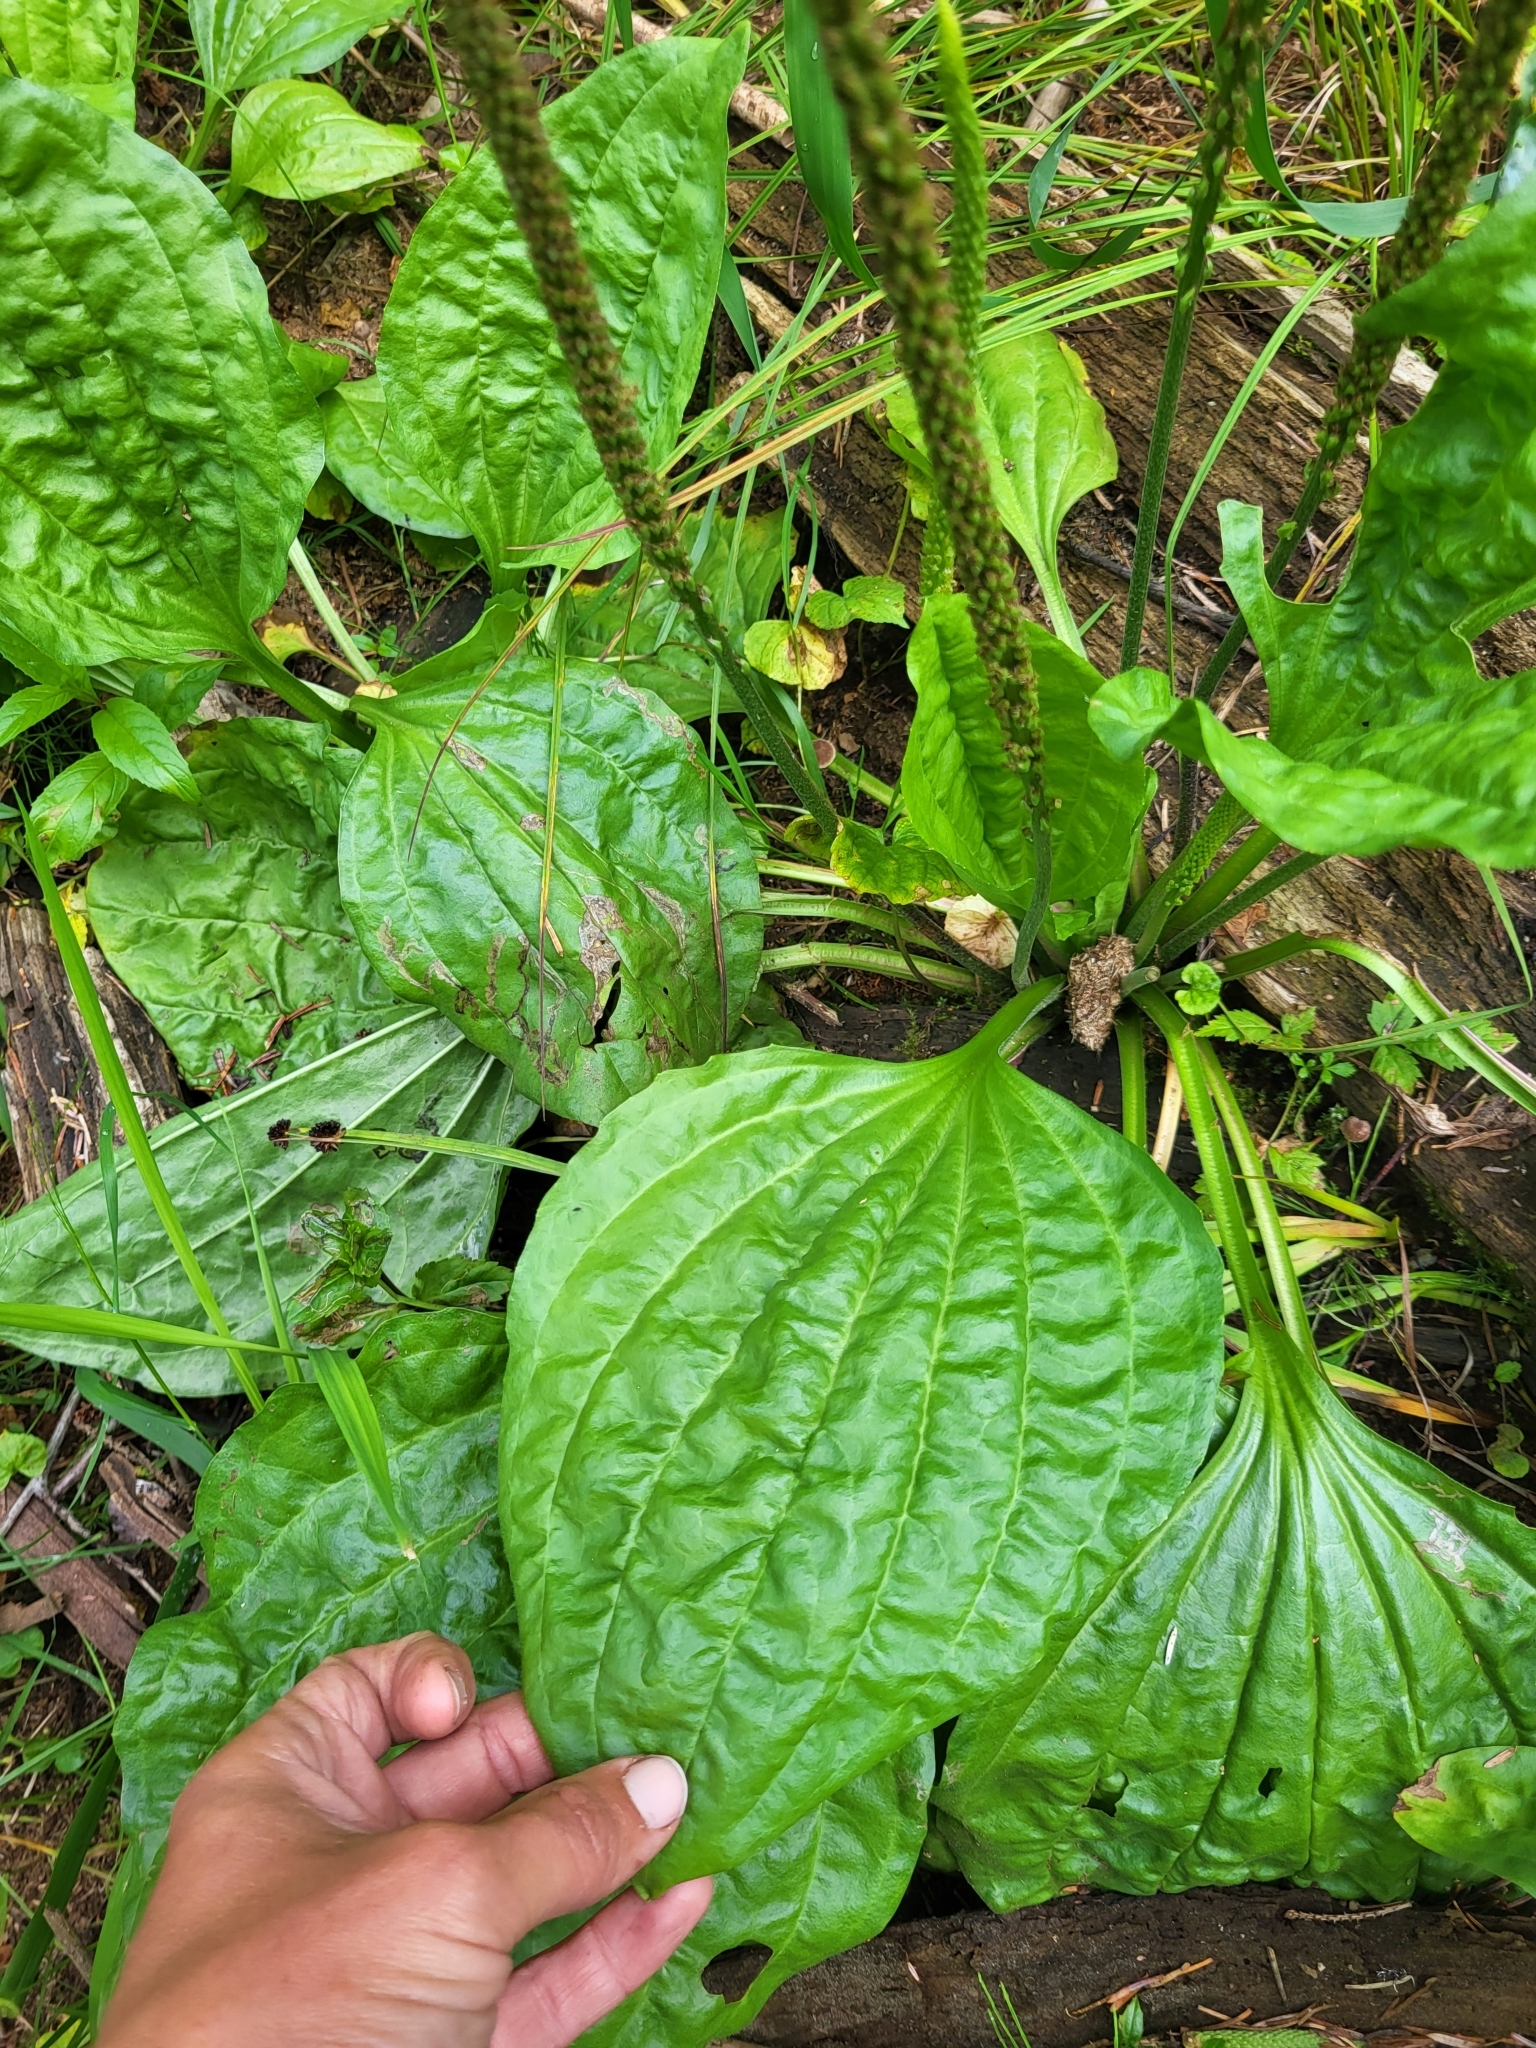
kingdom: Plantae
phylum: Tracheophyta
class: Magnoliopsida
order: Lamiales
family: Plantaginaceae
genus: Plantago
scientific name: Plantago major
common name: Common plantain
